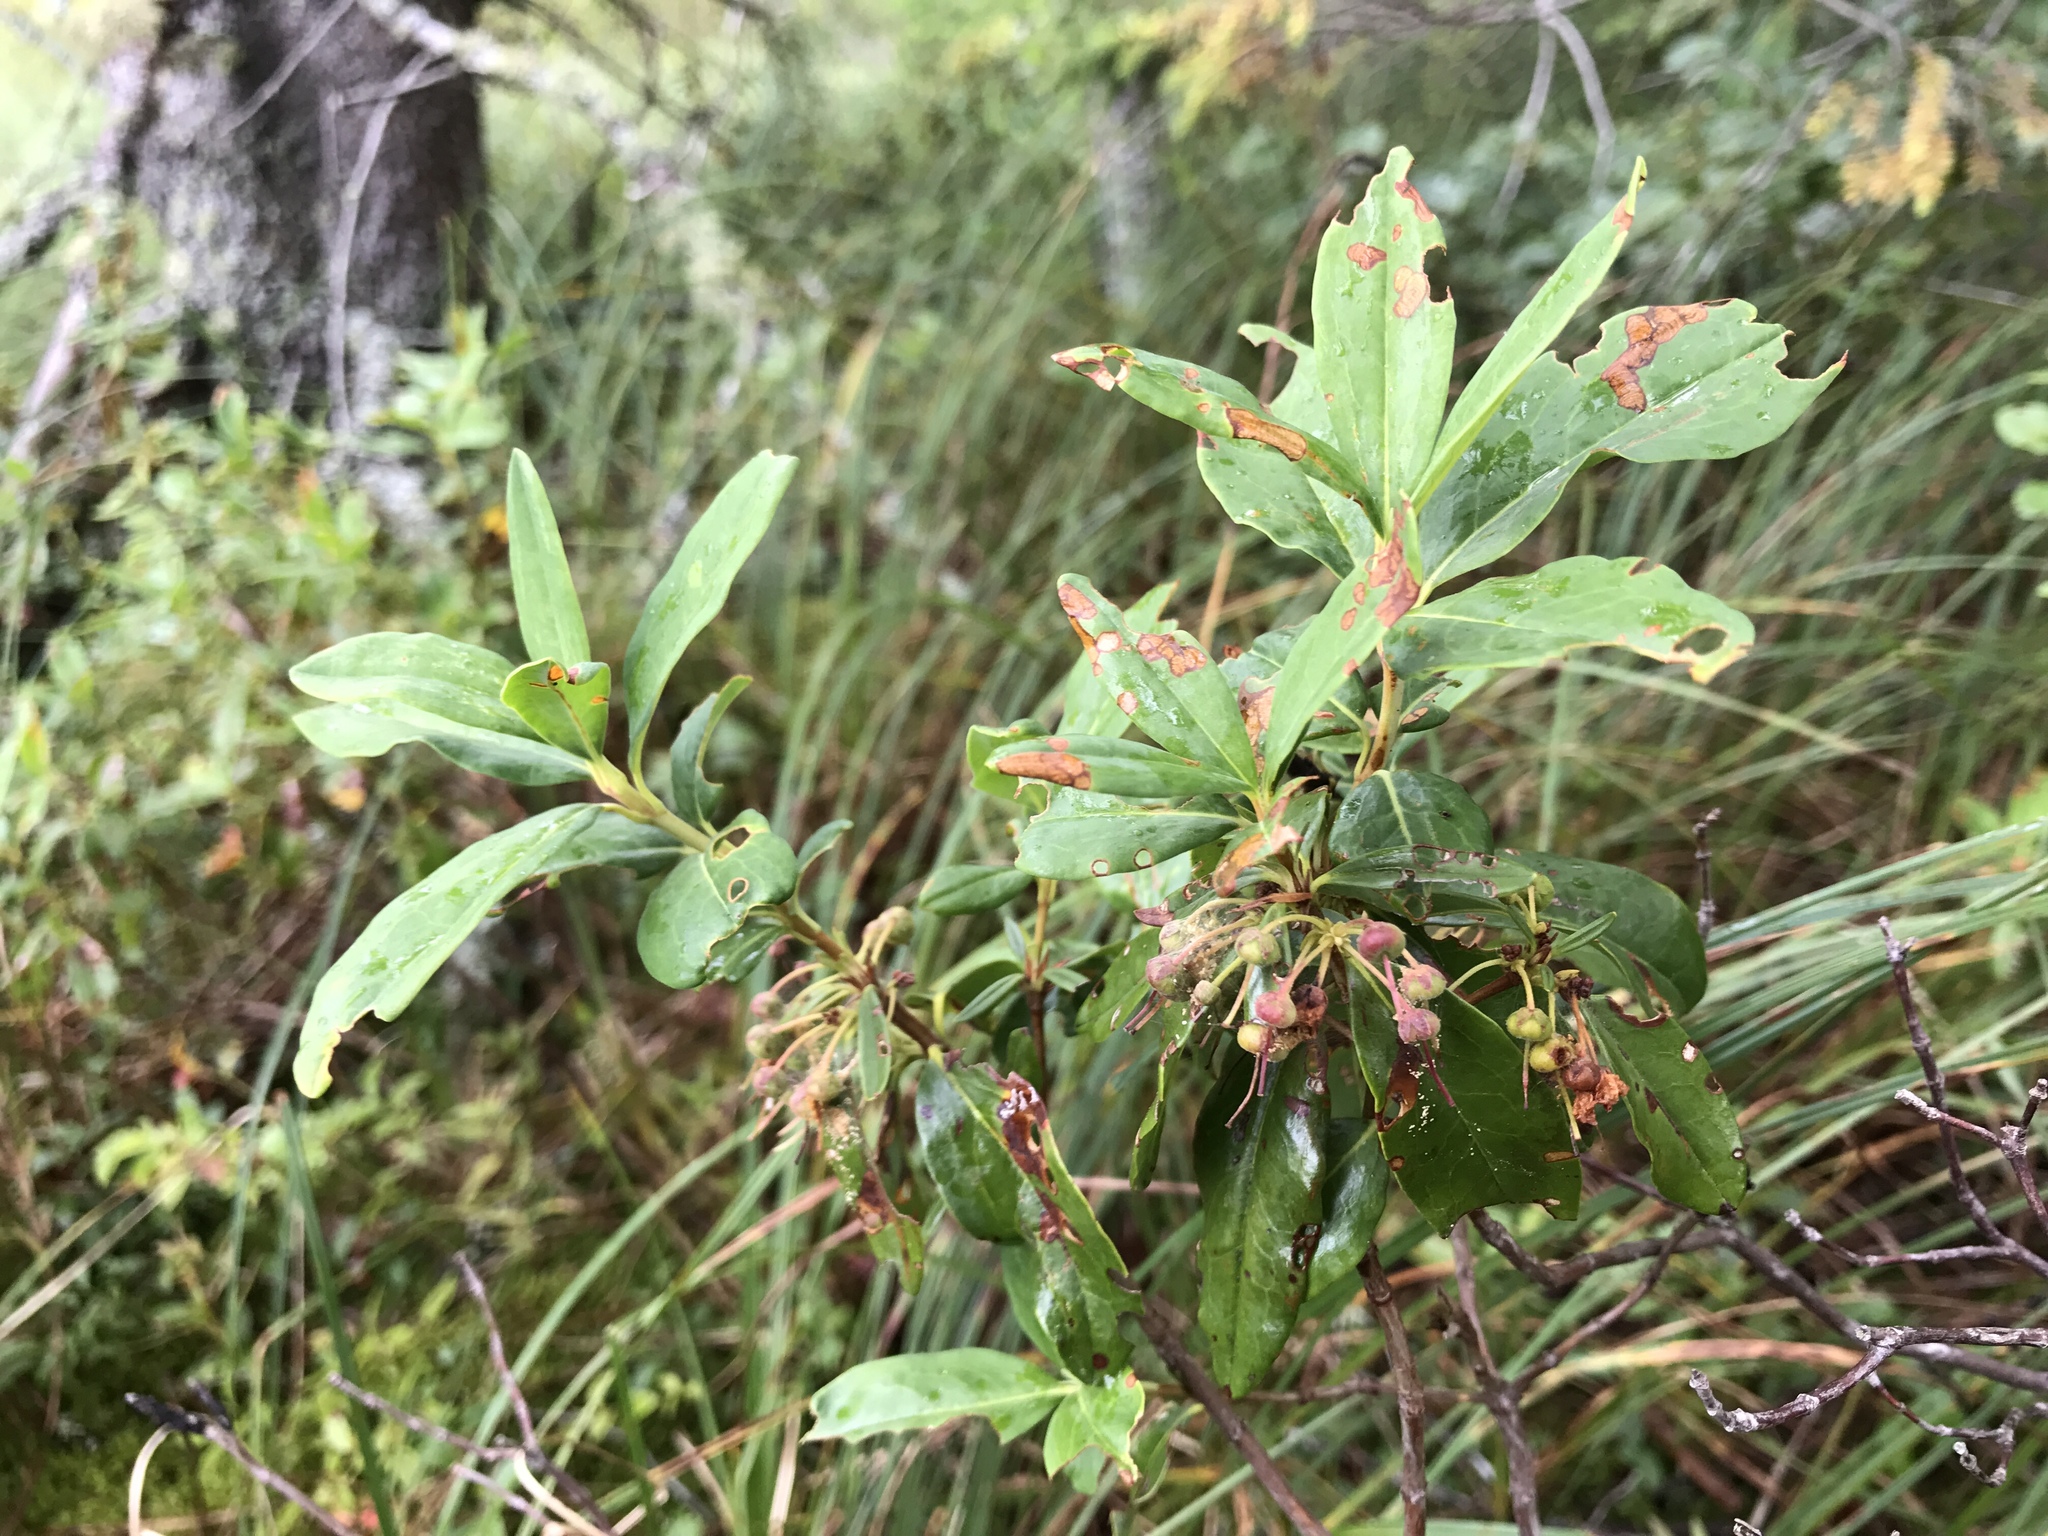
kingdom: Plantae
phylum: Tracheophyta
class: Magnoliopsida
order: Ericales
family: Ericaceae
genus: Kalmia
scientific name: Kalmia angustifolia
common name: Sheep-laurel
